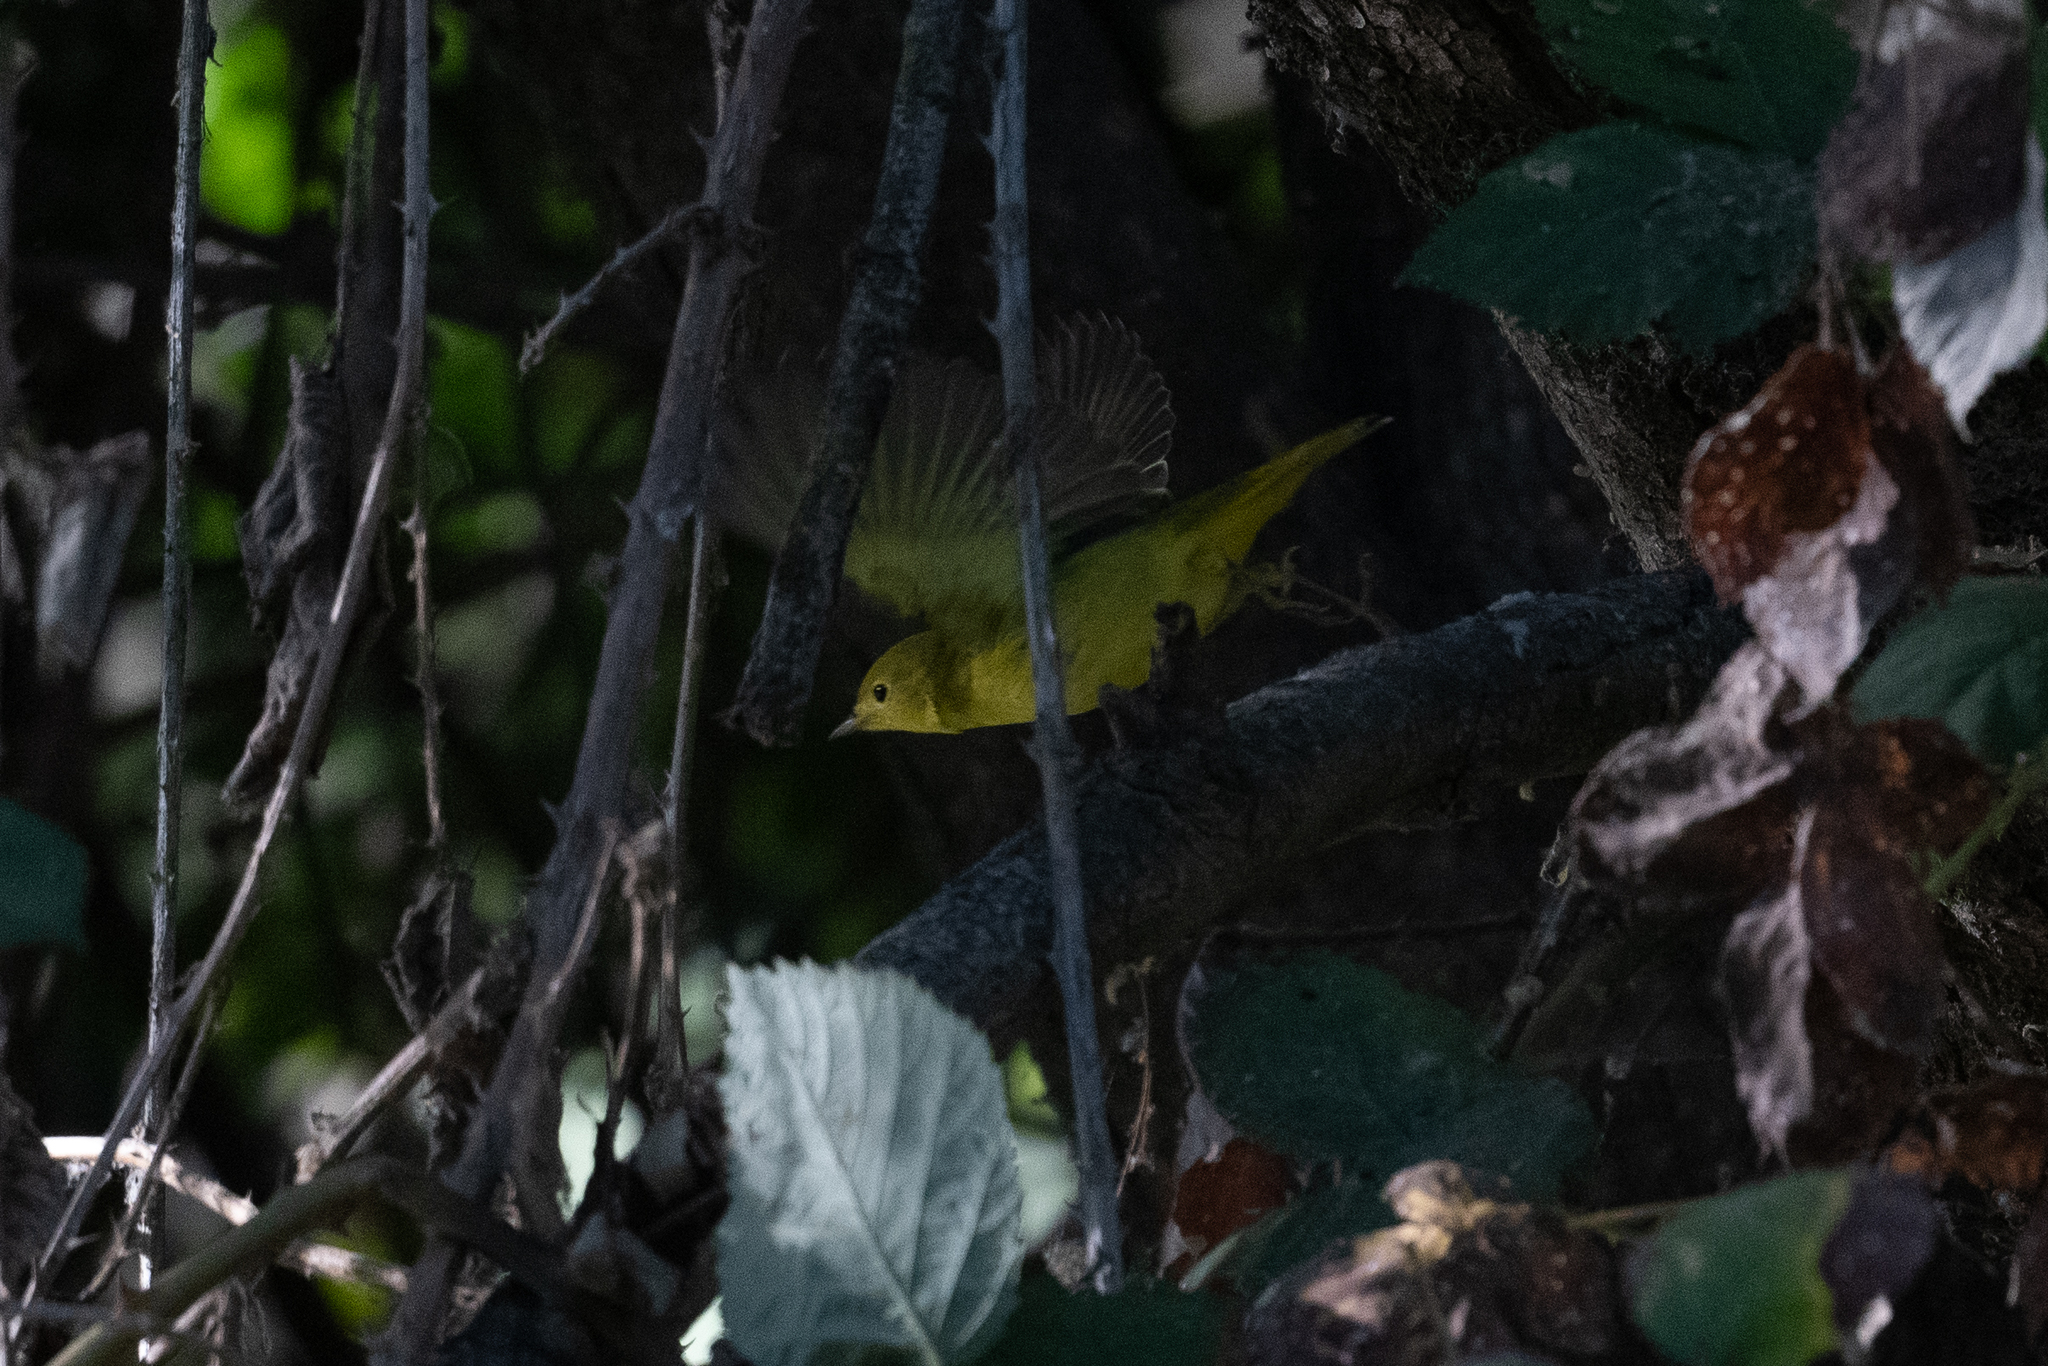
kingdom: Animalia
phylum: Chordata
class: Aves
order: Passeriformes
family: Parulidae
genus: Setophaga
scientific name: Setophaga petechia
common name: Yellow warbler
